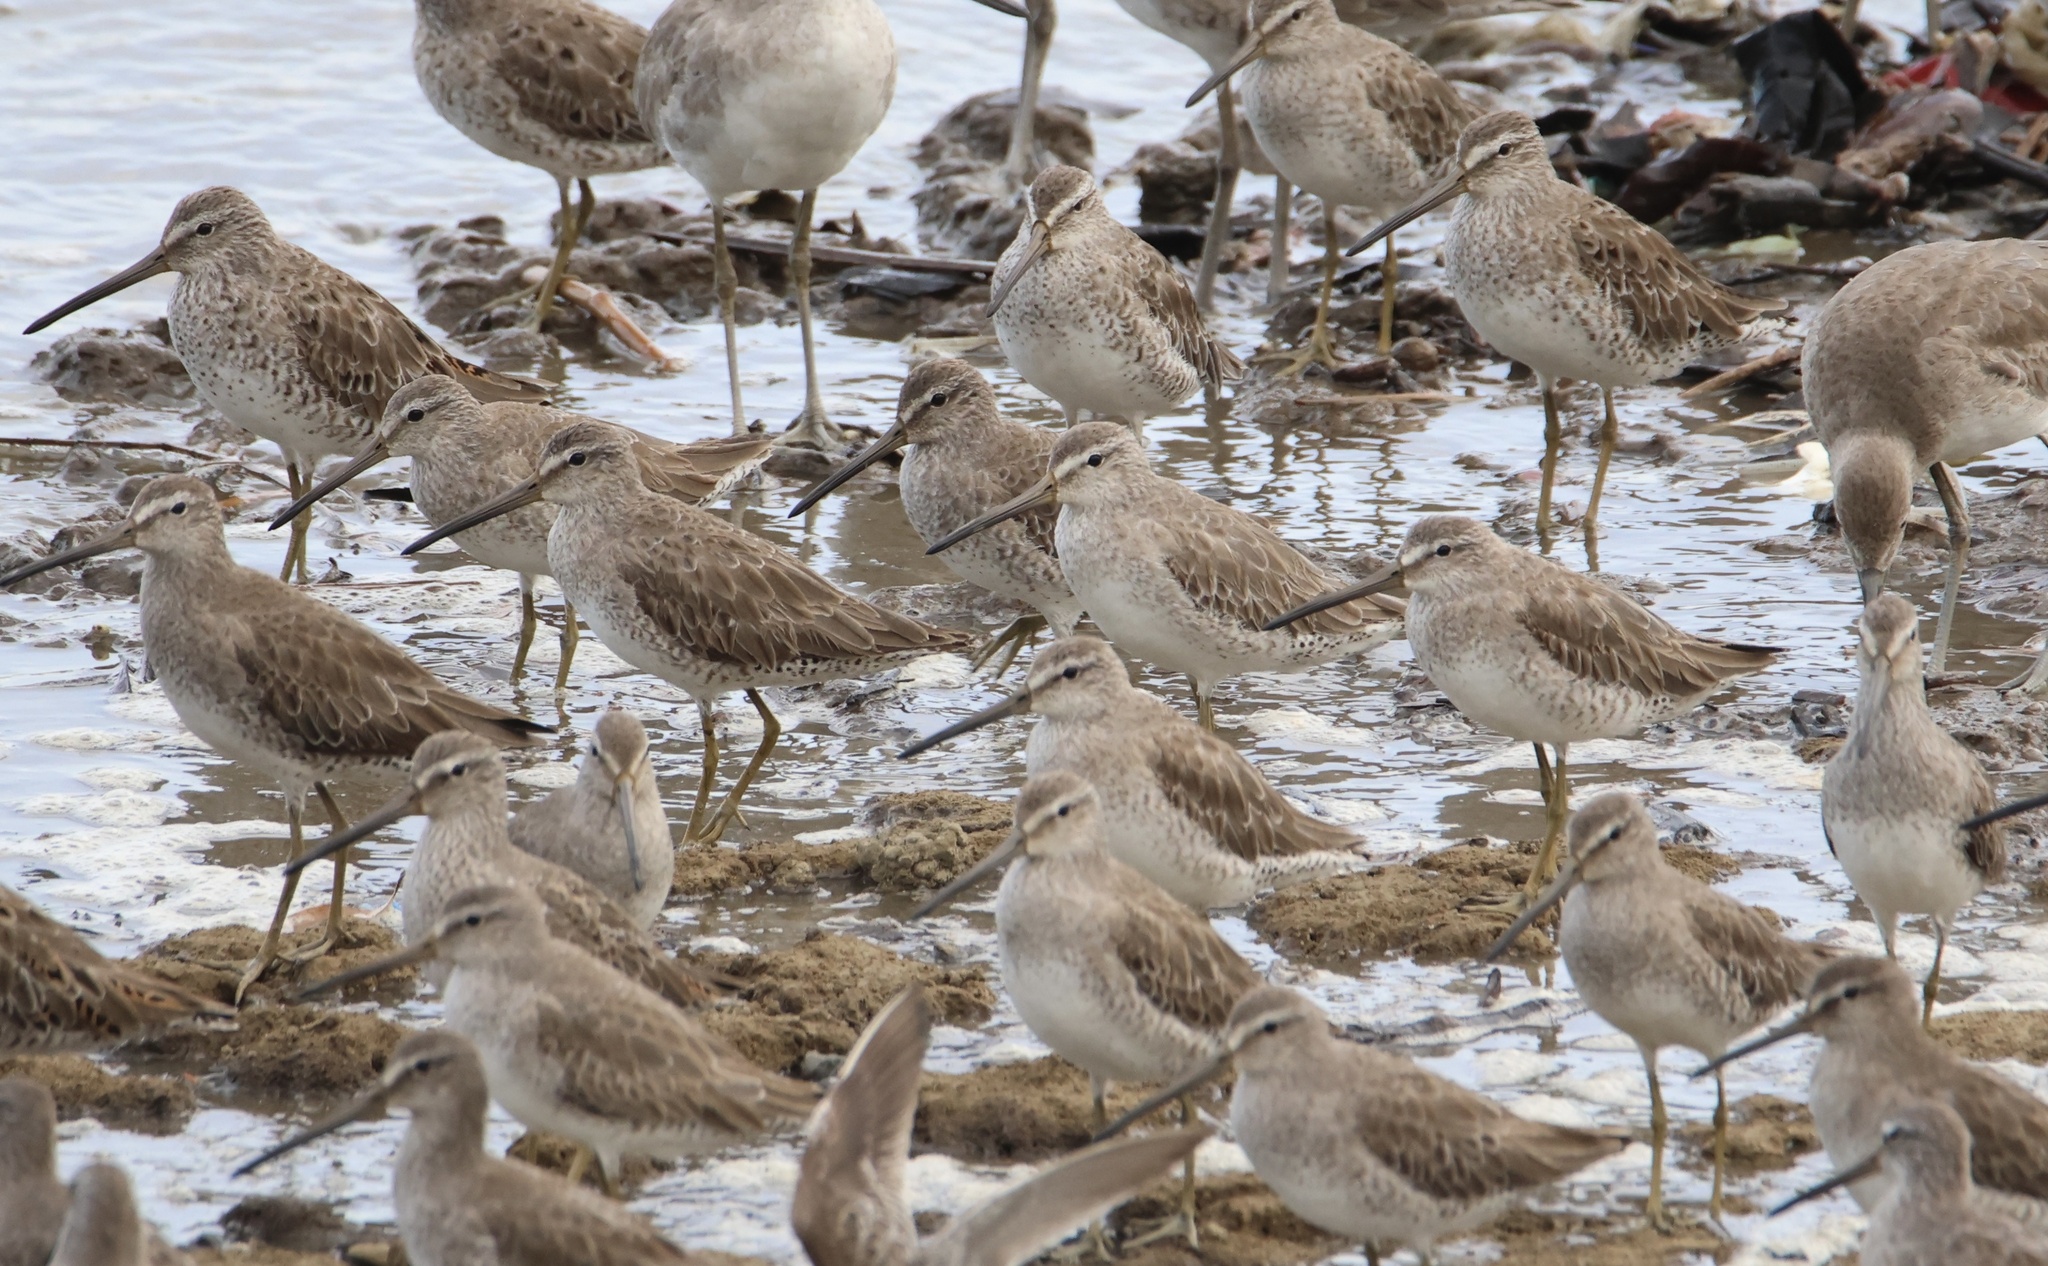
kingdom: Animalia
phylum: Chordata
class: Aves
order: Charadriiformes
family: Scolopacidae
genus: Limnodromus
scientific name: Limnodromus griseus
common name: Short-billed dowitcher
